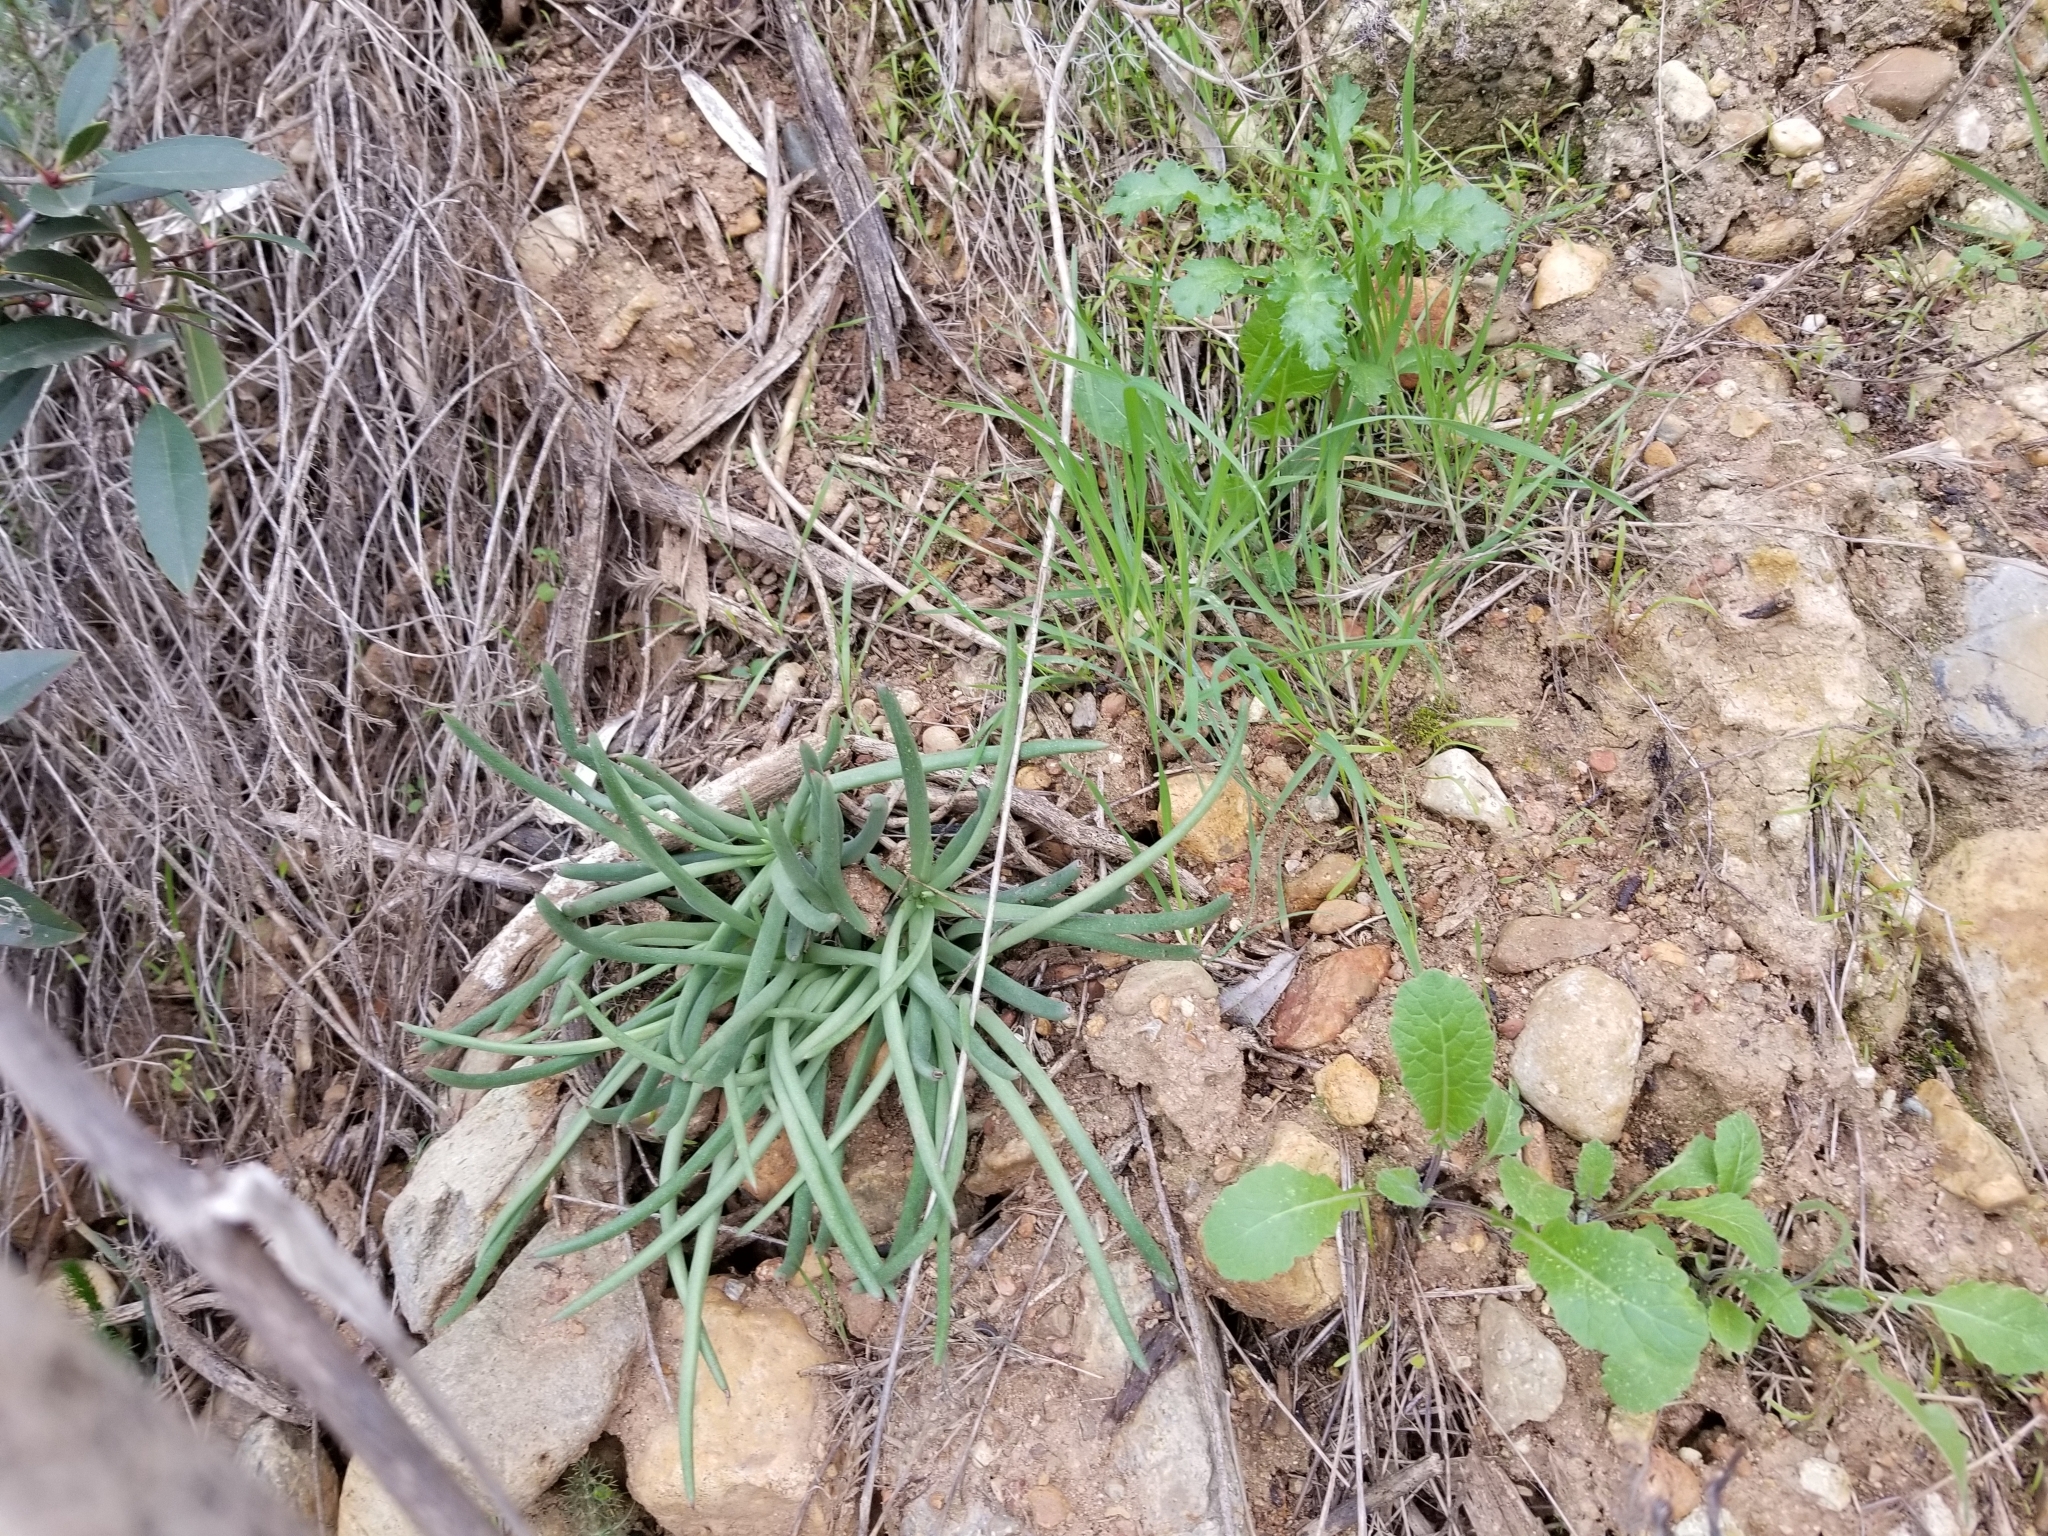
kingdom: Plantae
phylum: Tracheophyta
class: Magnoliopsida
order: Saxifragales
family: Crassulaceae
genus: Dudleya
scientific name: Dudleya edulis
